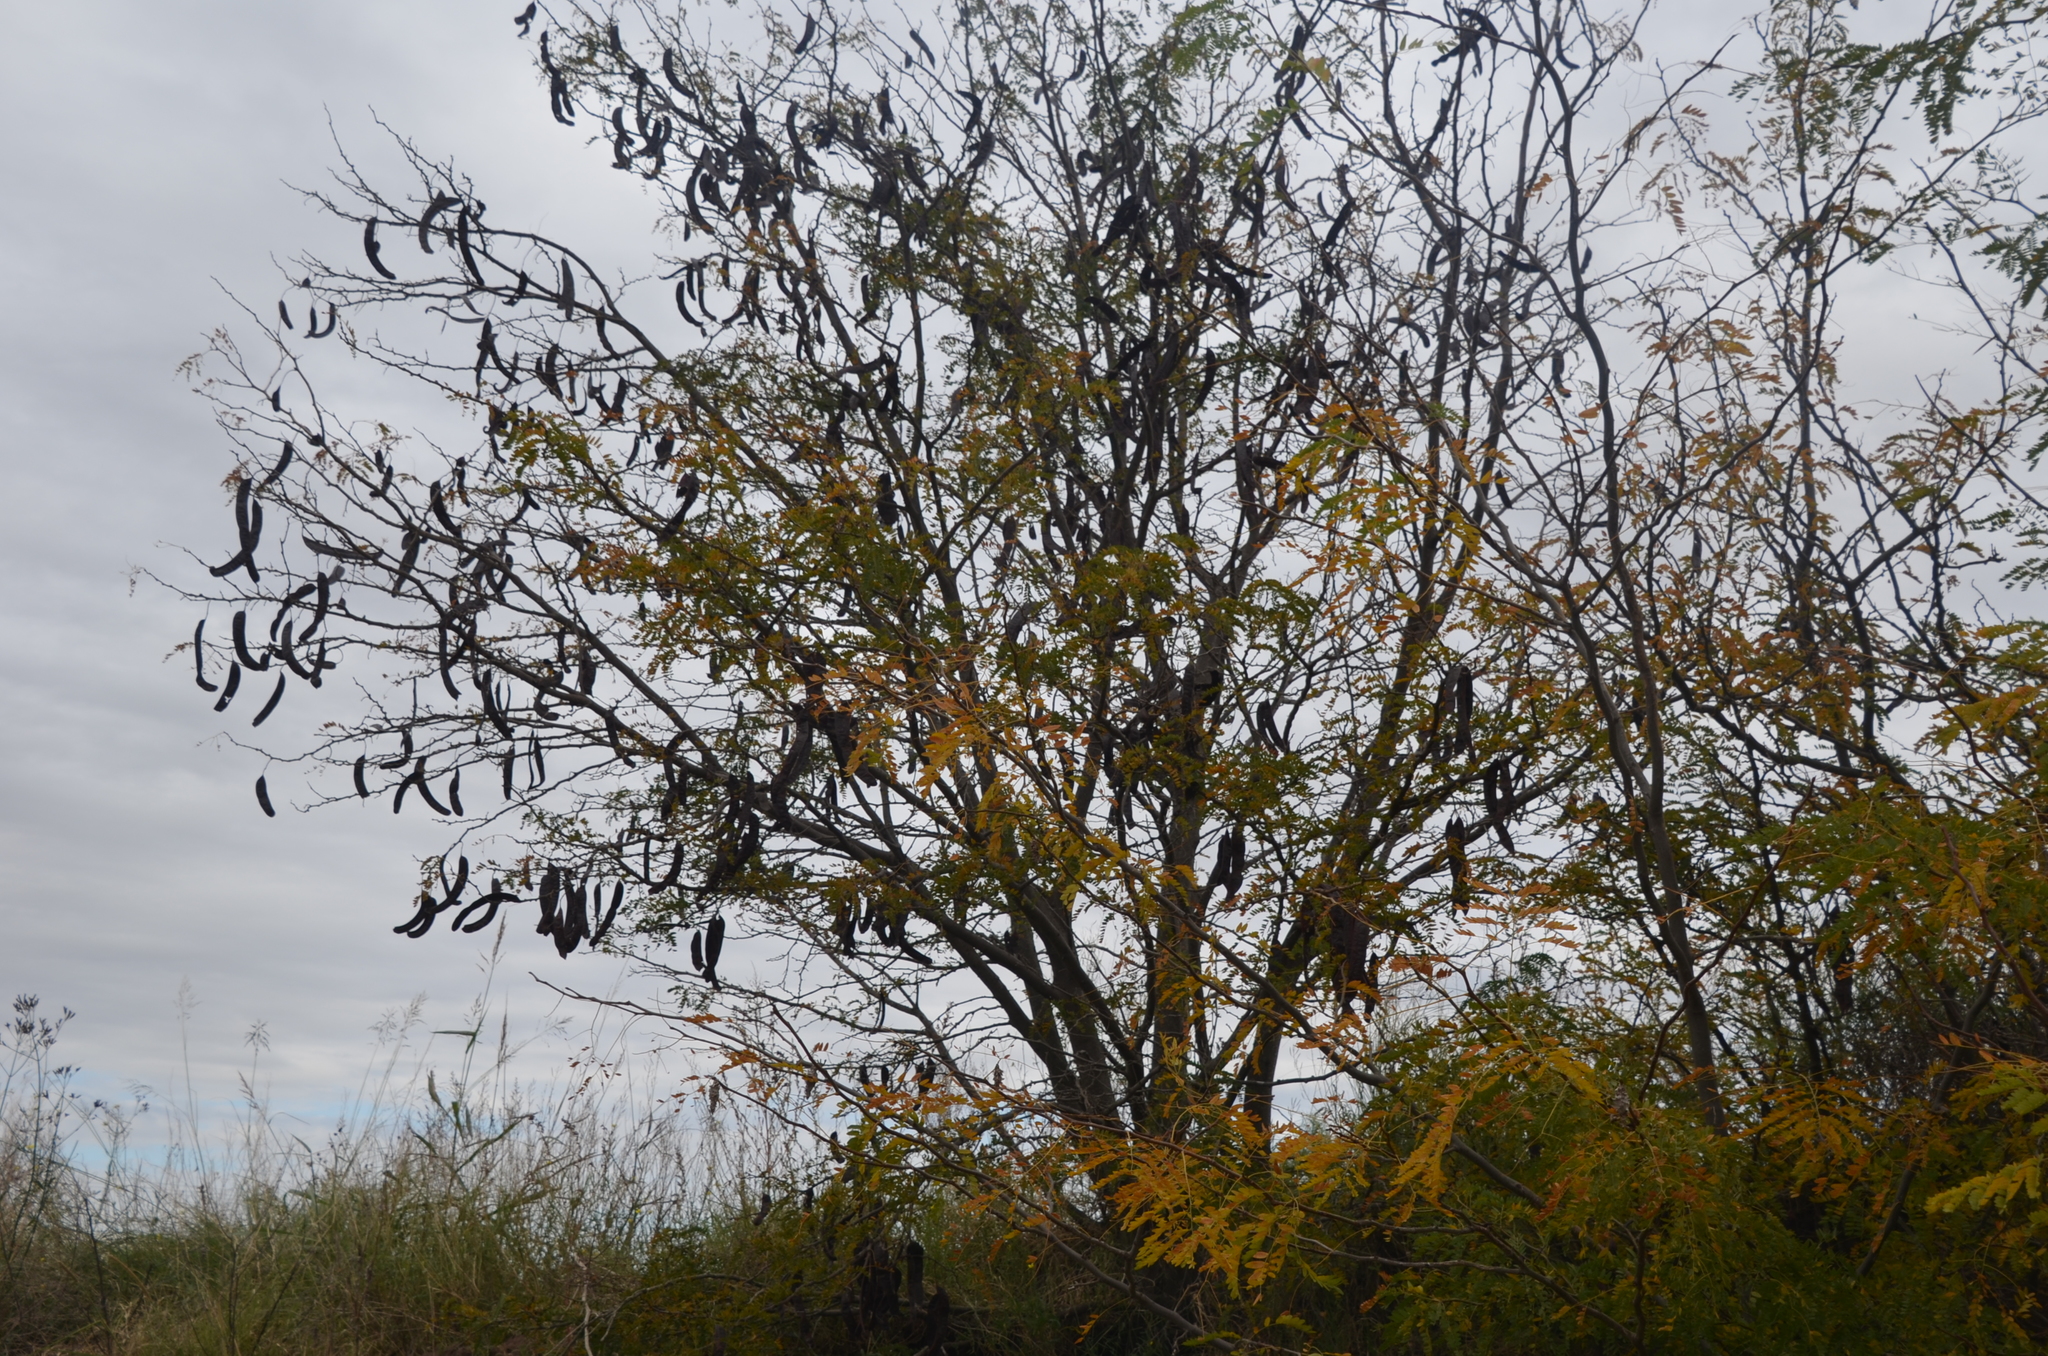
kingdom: Plantae
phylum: Tracheophyta
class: Magnoliopsida
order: Fabales
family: Fabaceae
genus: Gleditsia
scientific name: Gleditsia triacanthos
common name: Common honeylocust
